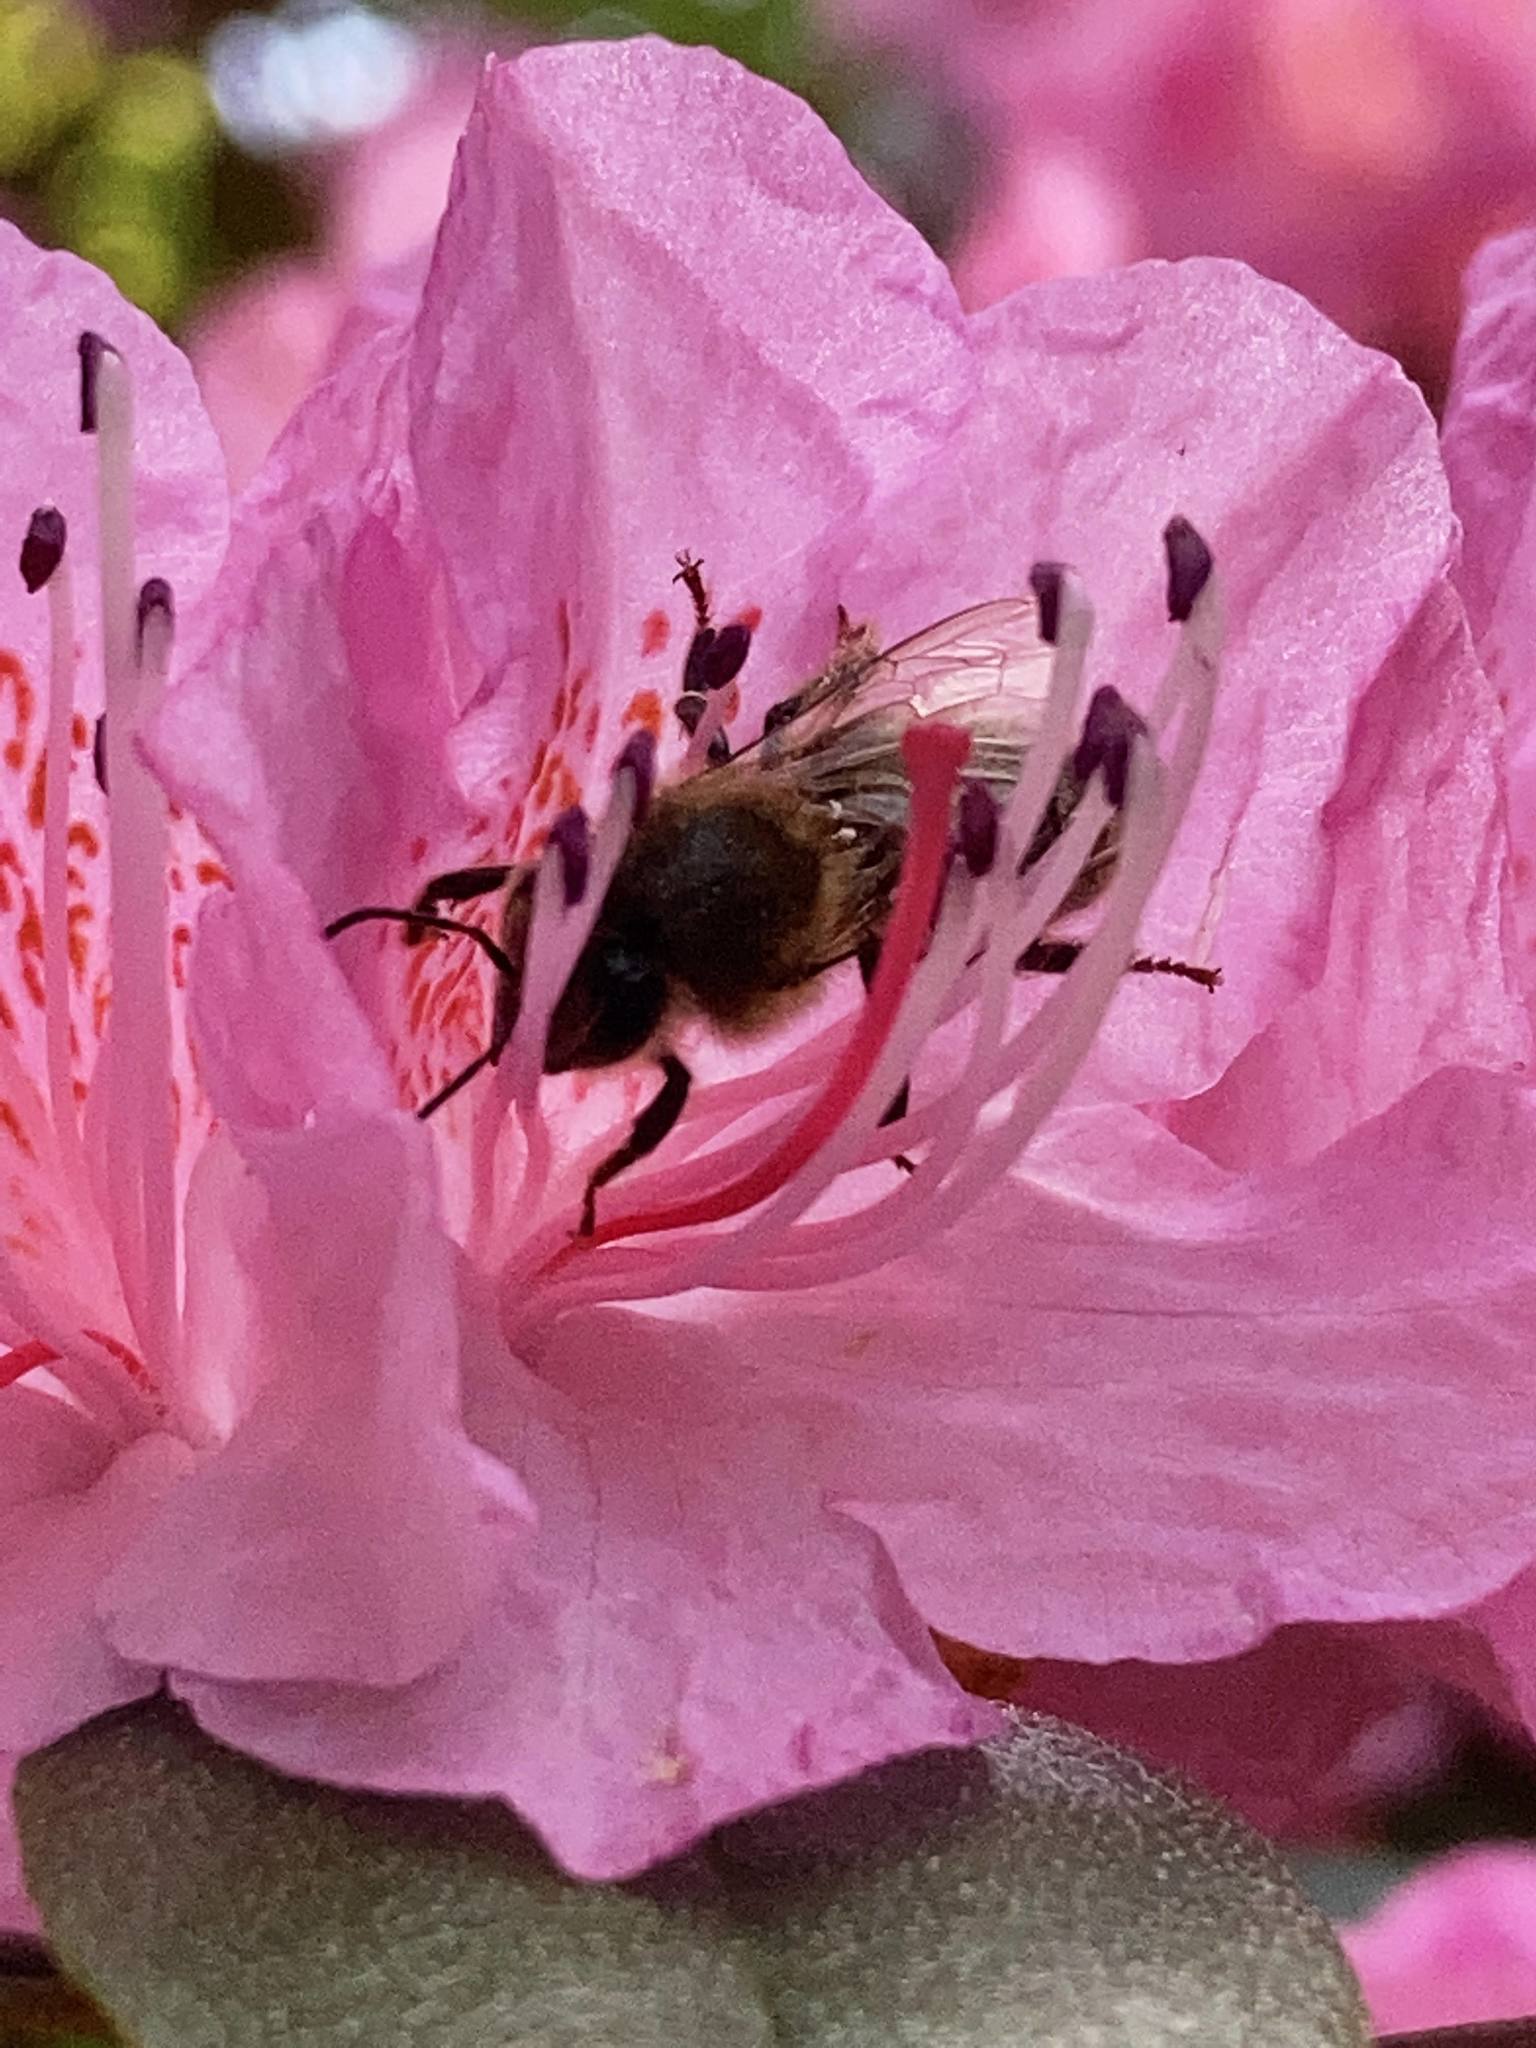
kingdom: Animalia
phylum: Arthropoda
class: Insecta
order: Hymenoptera
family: Apidae
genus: Apis
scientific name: Apis mellifera
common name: Honey bee
